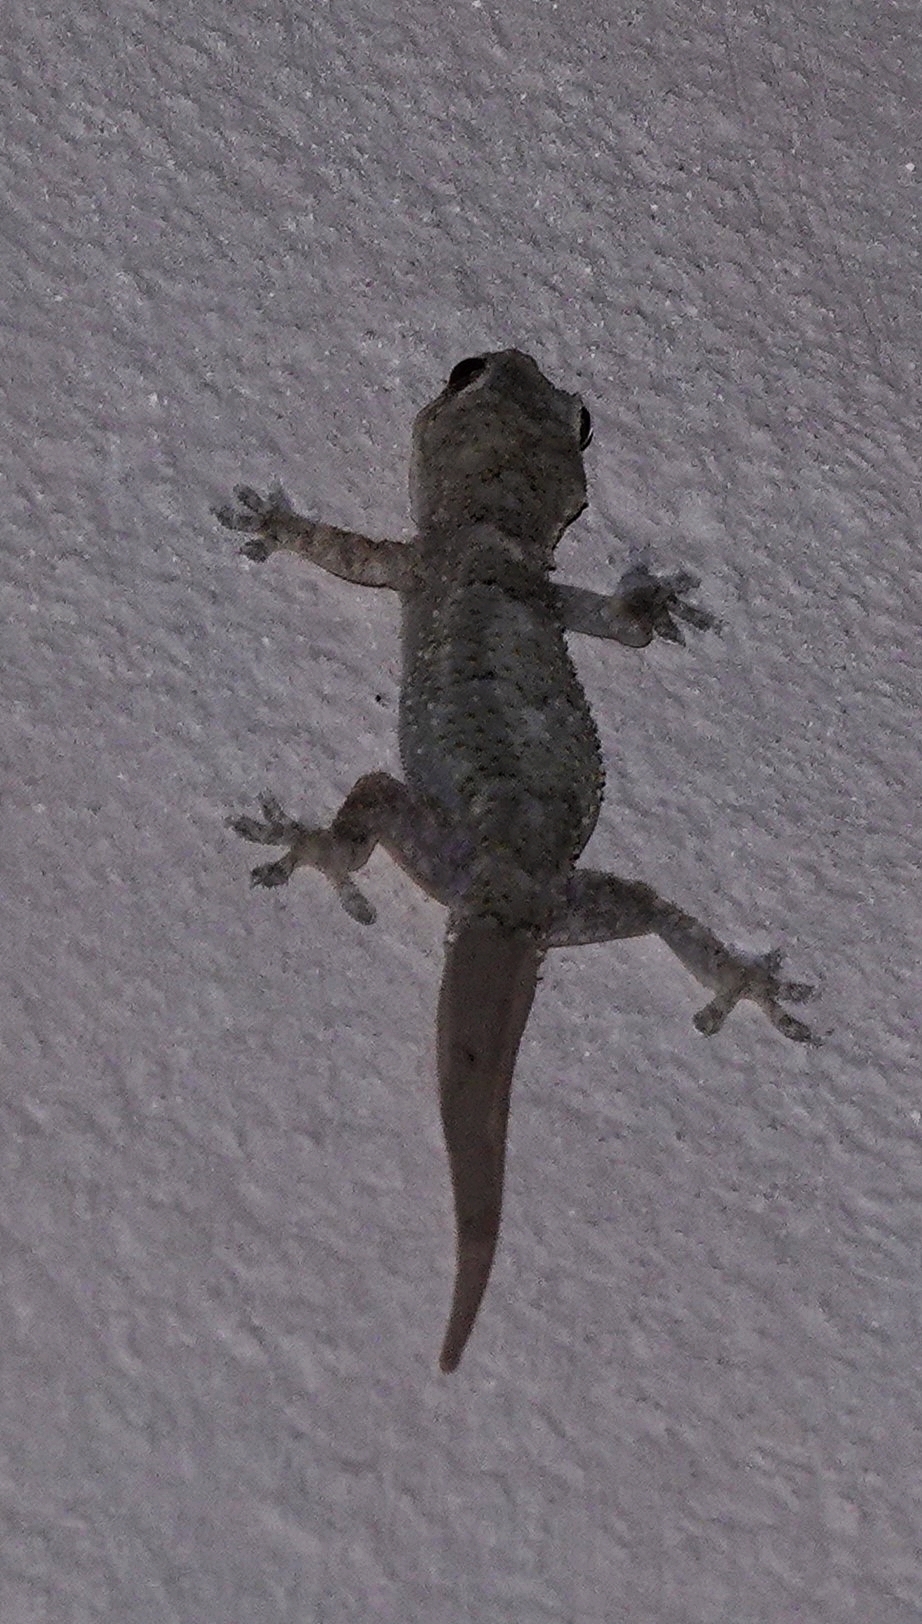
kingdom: Animalia
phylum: Chordata
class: Squamata
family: Gekkonidae
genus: Hemidactylus
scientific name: Hemidactylus mercatorius
